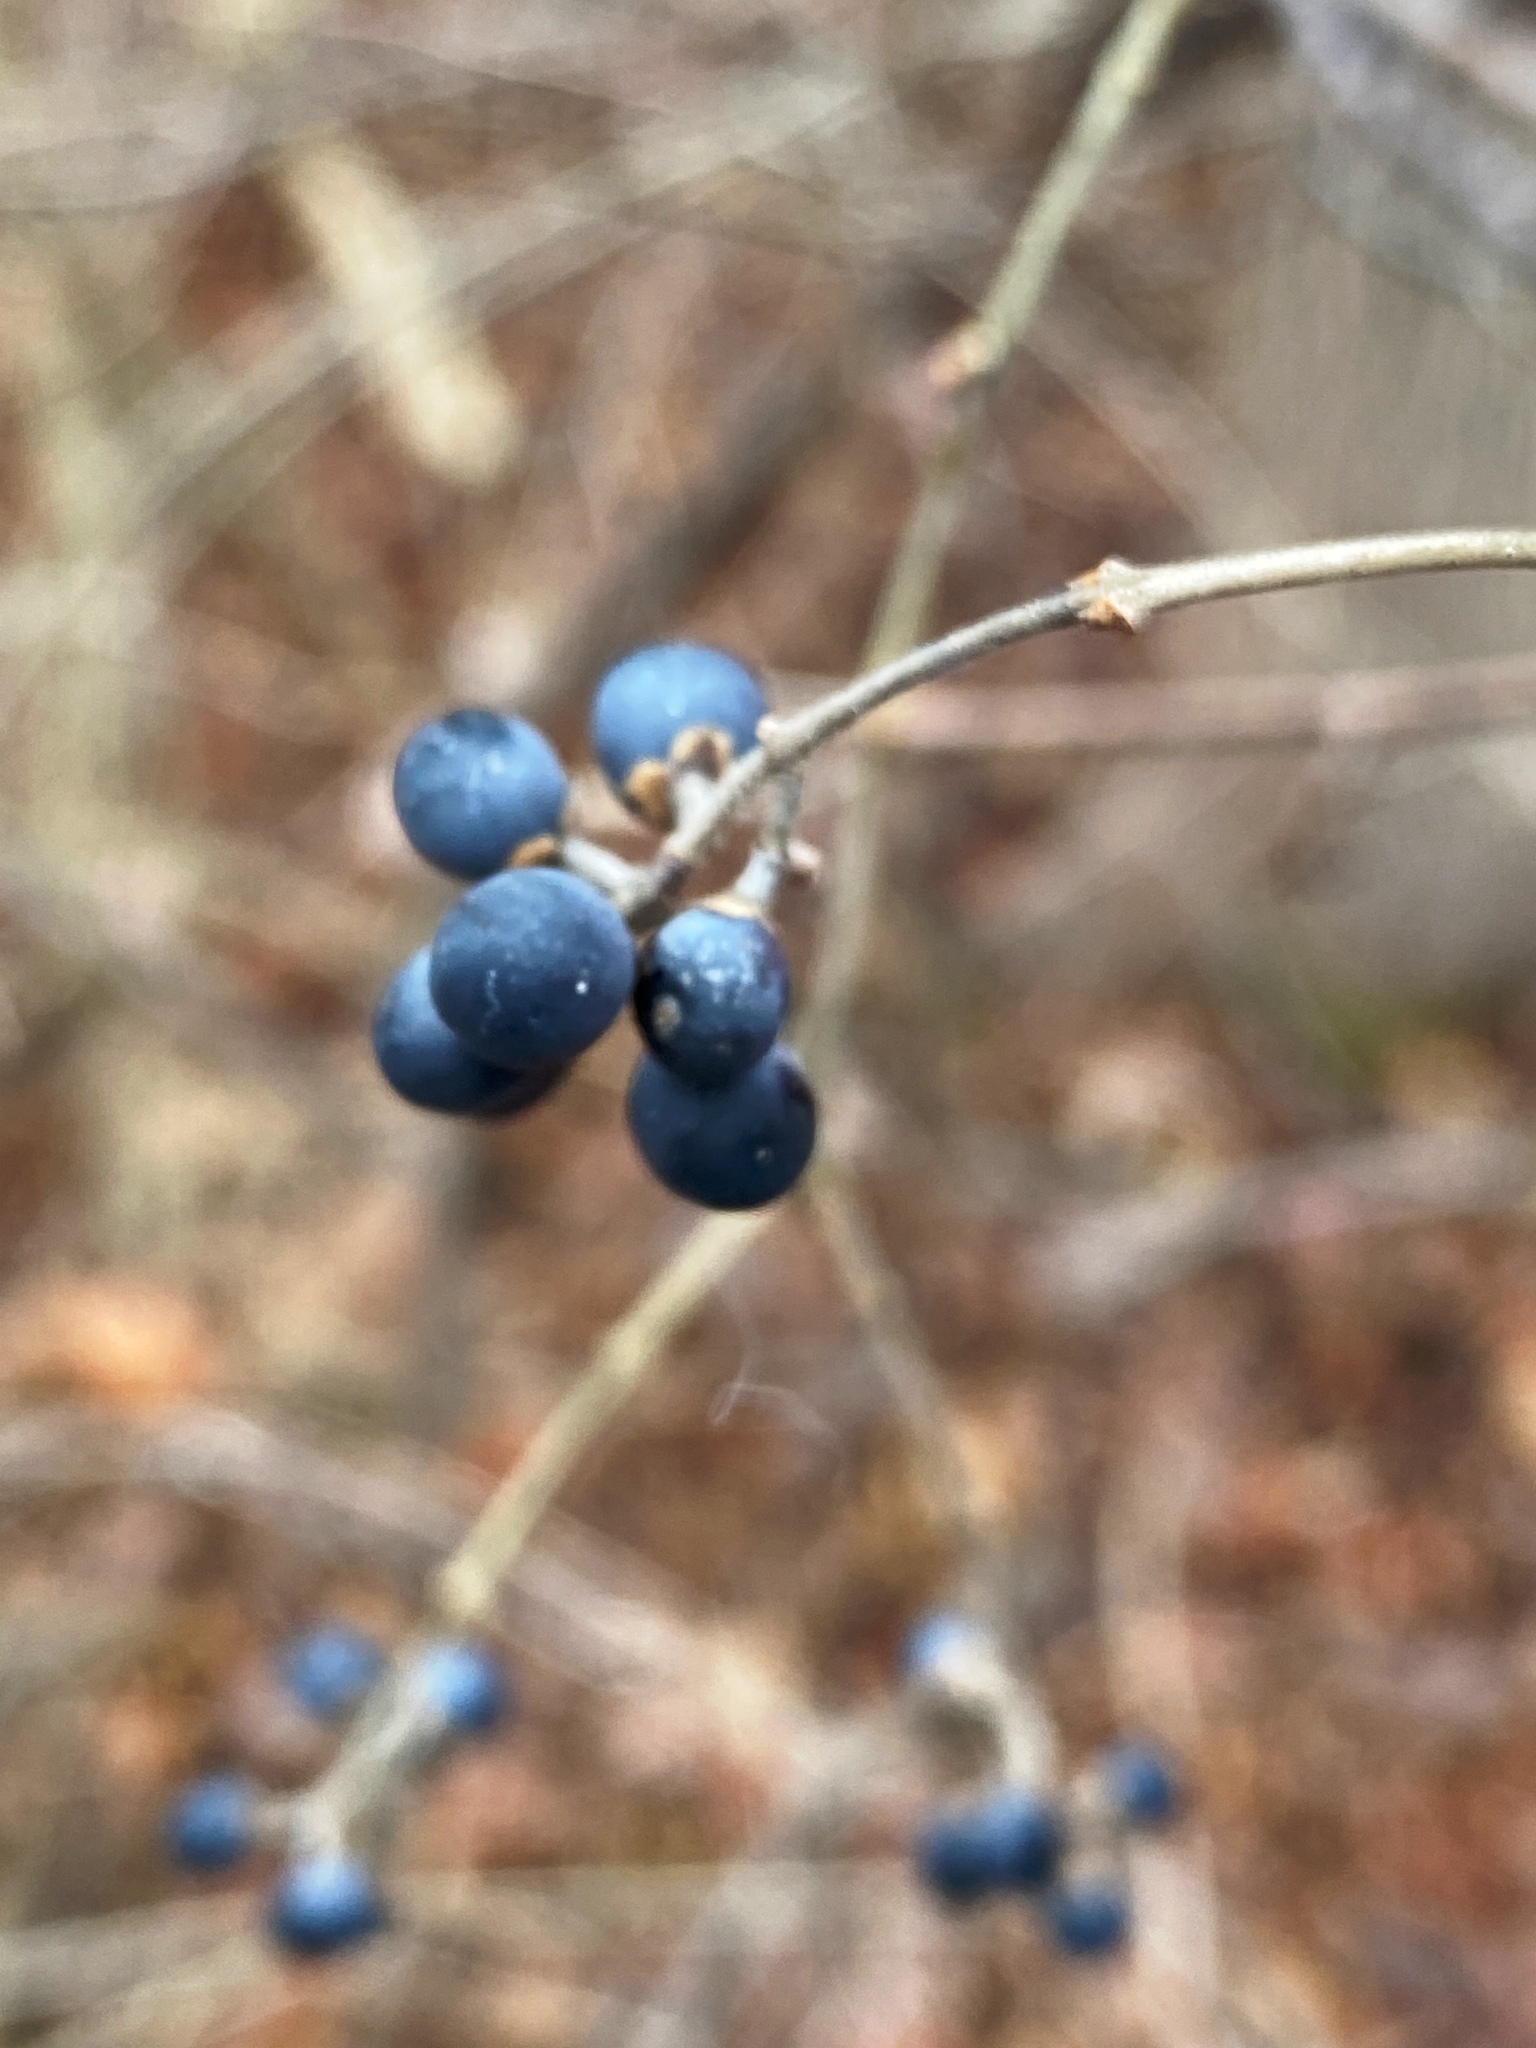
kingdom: Plantae
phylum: Tracheophyta
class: Magnoliopsida
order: Lamiales
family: Oleaceae
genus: Ligustrum
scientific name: Ligustrum
